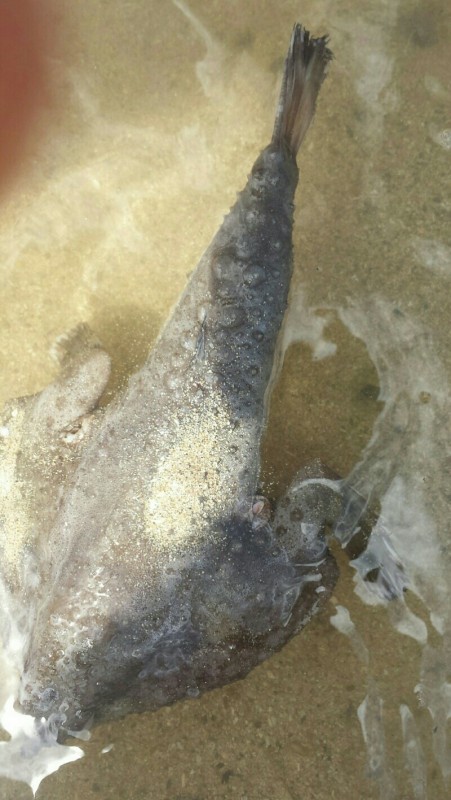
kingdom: Animalia
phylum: Chordata
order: Lophiiformes
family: Ogcocephalidae
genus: Ogcocephalus
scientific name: Ogcocephalus cubifrons
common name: Polka-dot batfish
